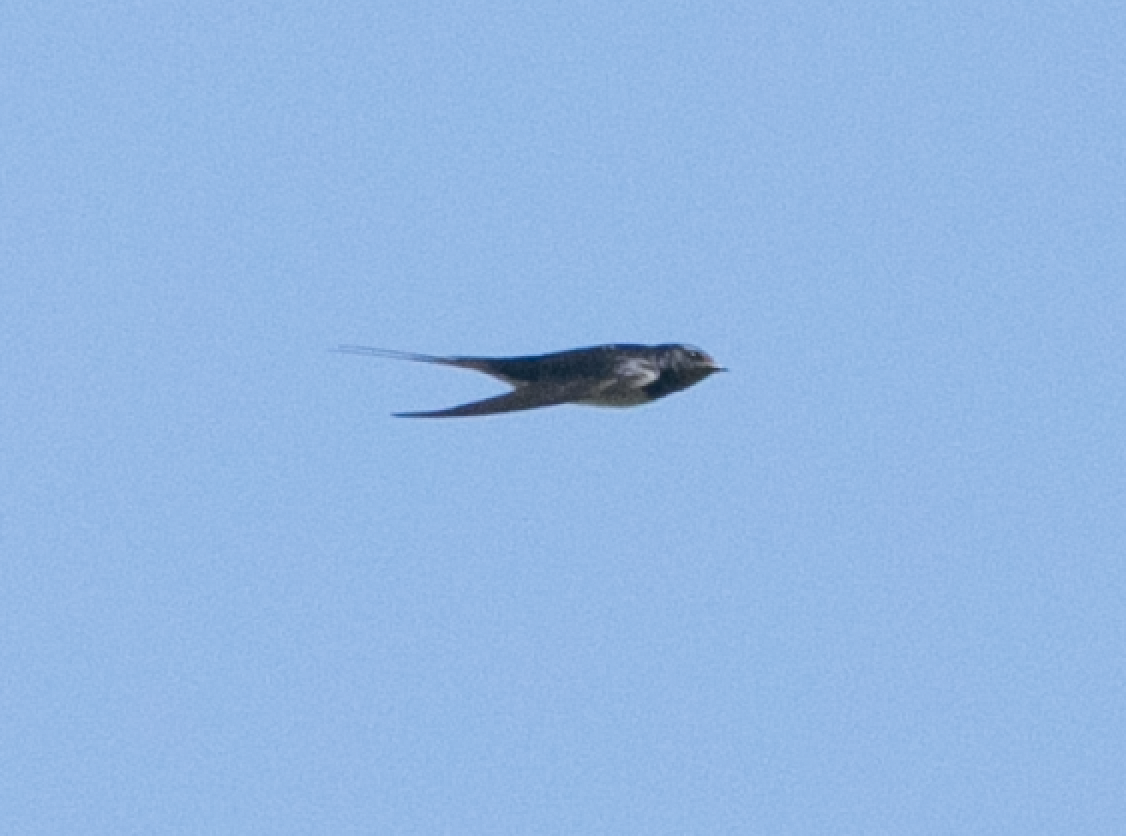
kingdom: Animalia
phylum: Chordata
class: Aves
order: Passeriformes
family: Hirundinidae
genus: Hirundo
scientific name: Hirundo rustica
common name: Barn swallow
